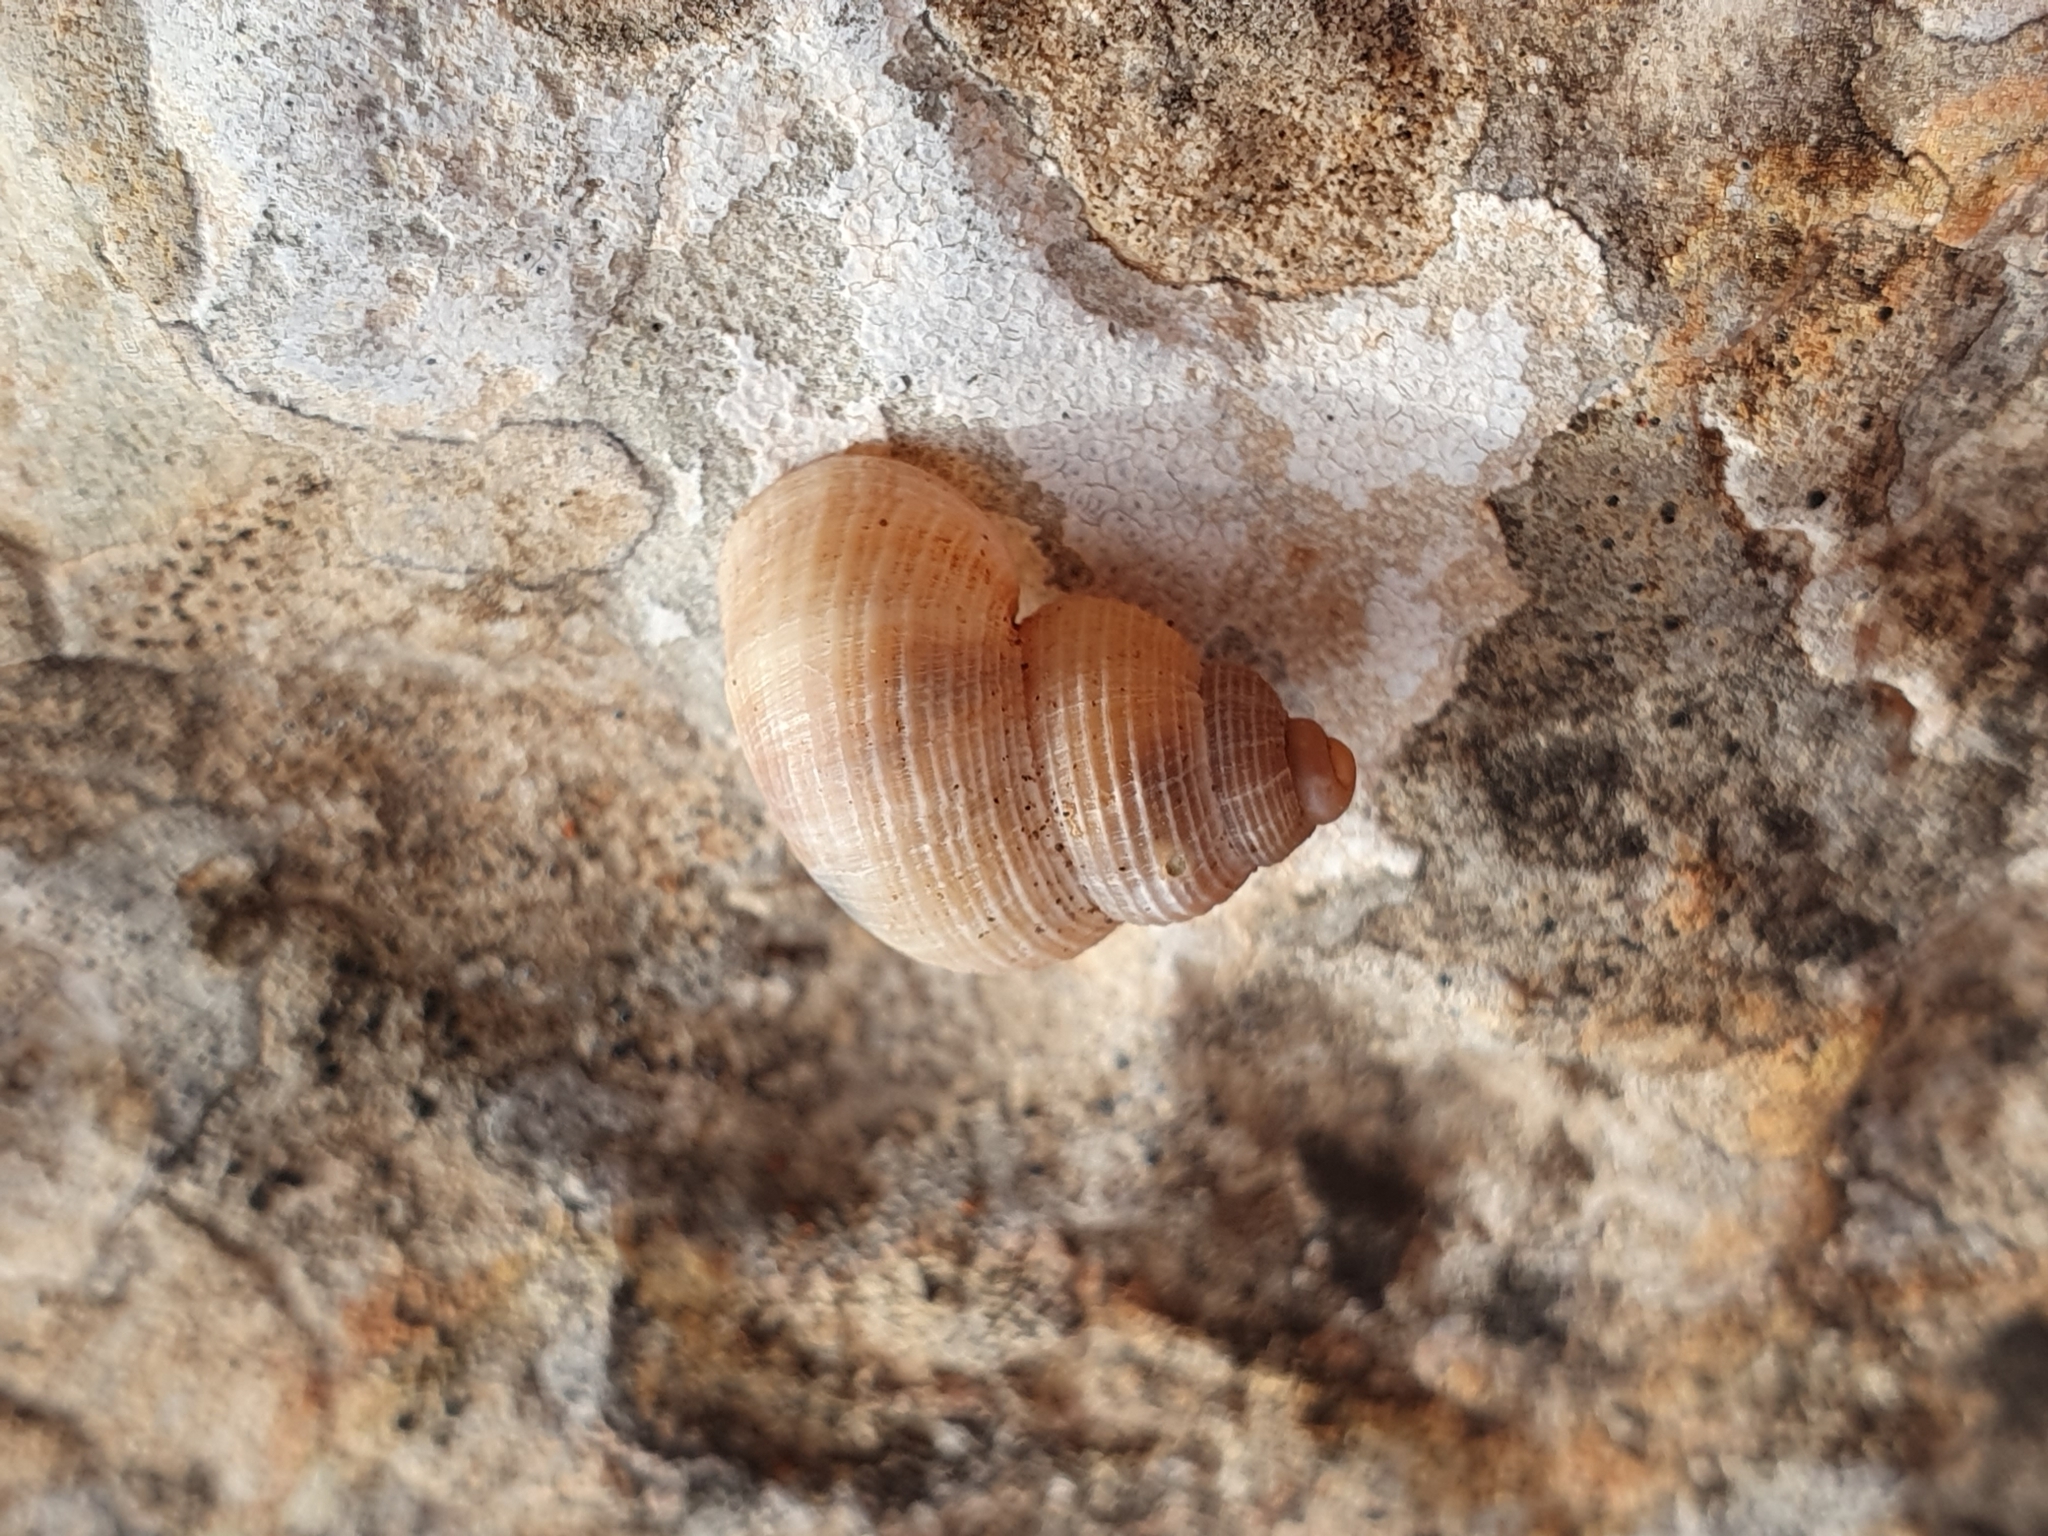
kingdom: Animalia
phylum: Mollusca
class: Gastropoda
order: Littorinimorpha
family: Pomatiidae
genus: Tudorella
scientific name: Tudorella sulcata
